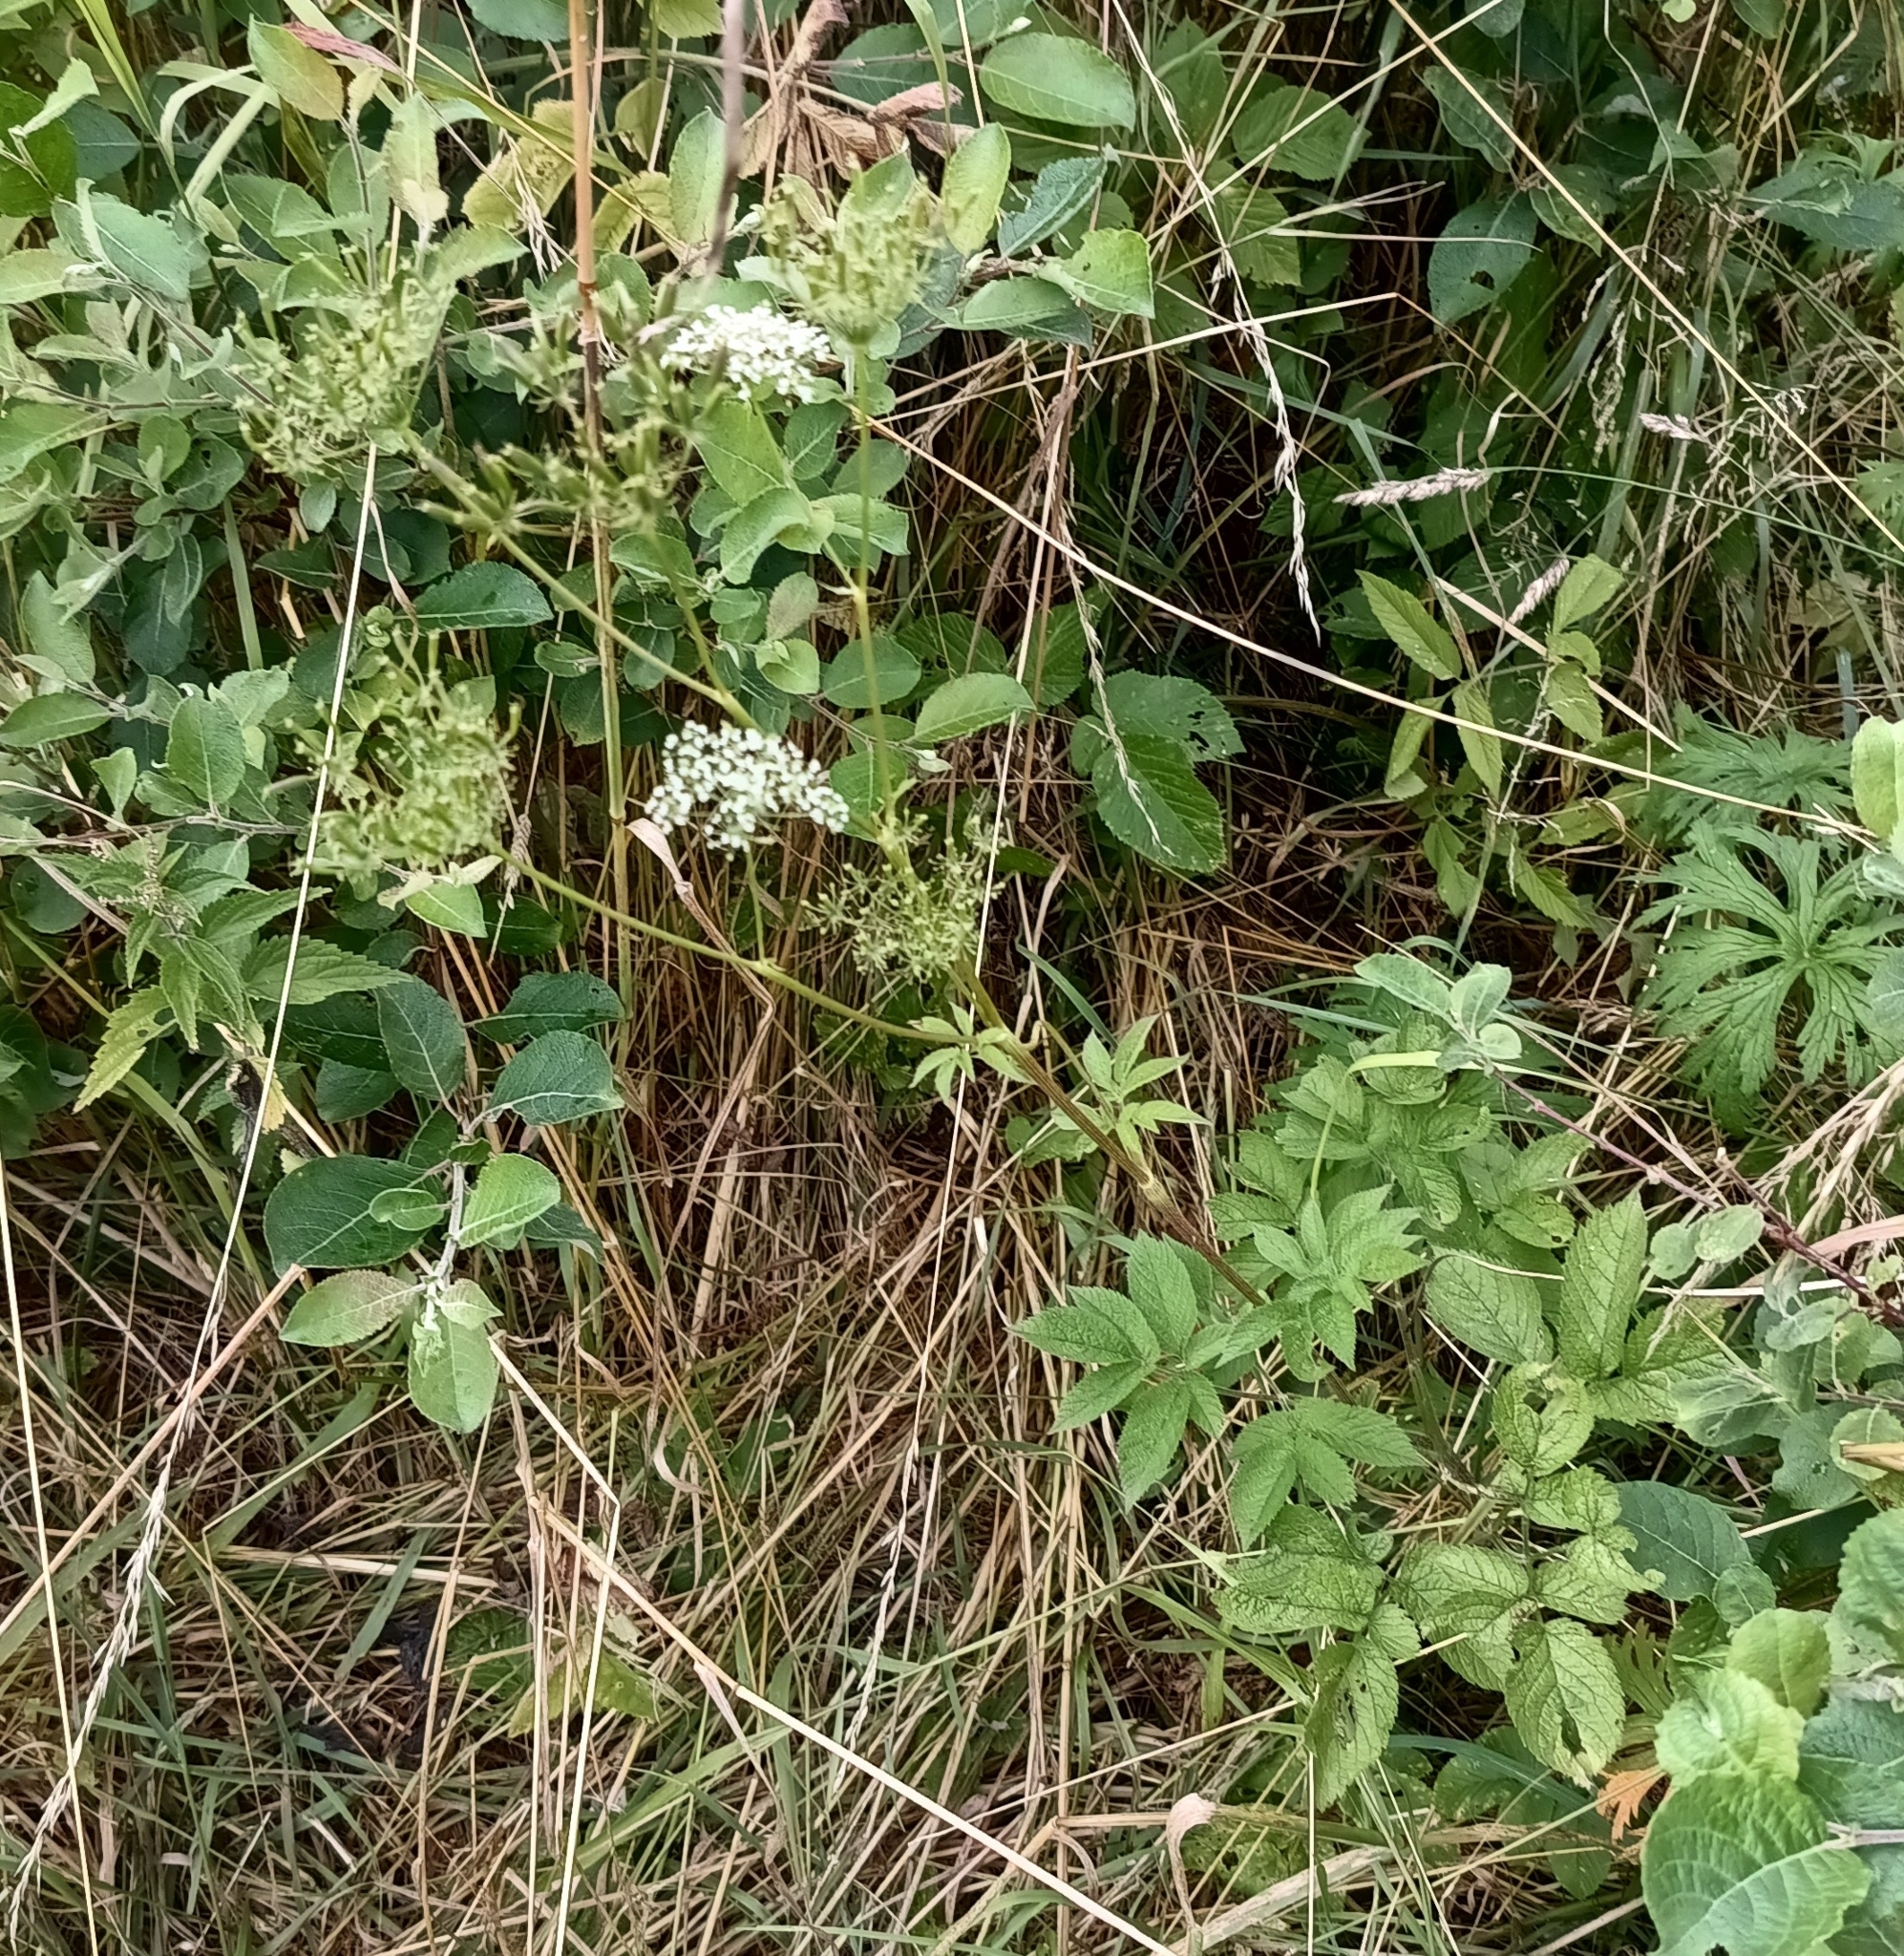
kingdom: Plantae
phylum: Tracheophyta
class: Magnoliopsida
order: Apiales
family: Apiaceae
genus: Chaerophyllum
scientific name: Chaerophyllum aromaticum
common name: Broadleaf chervil
